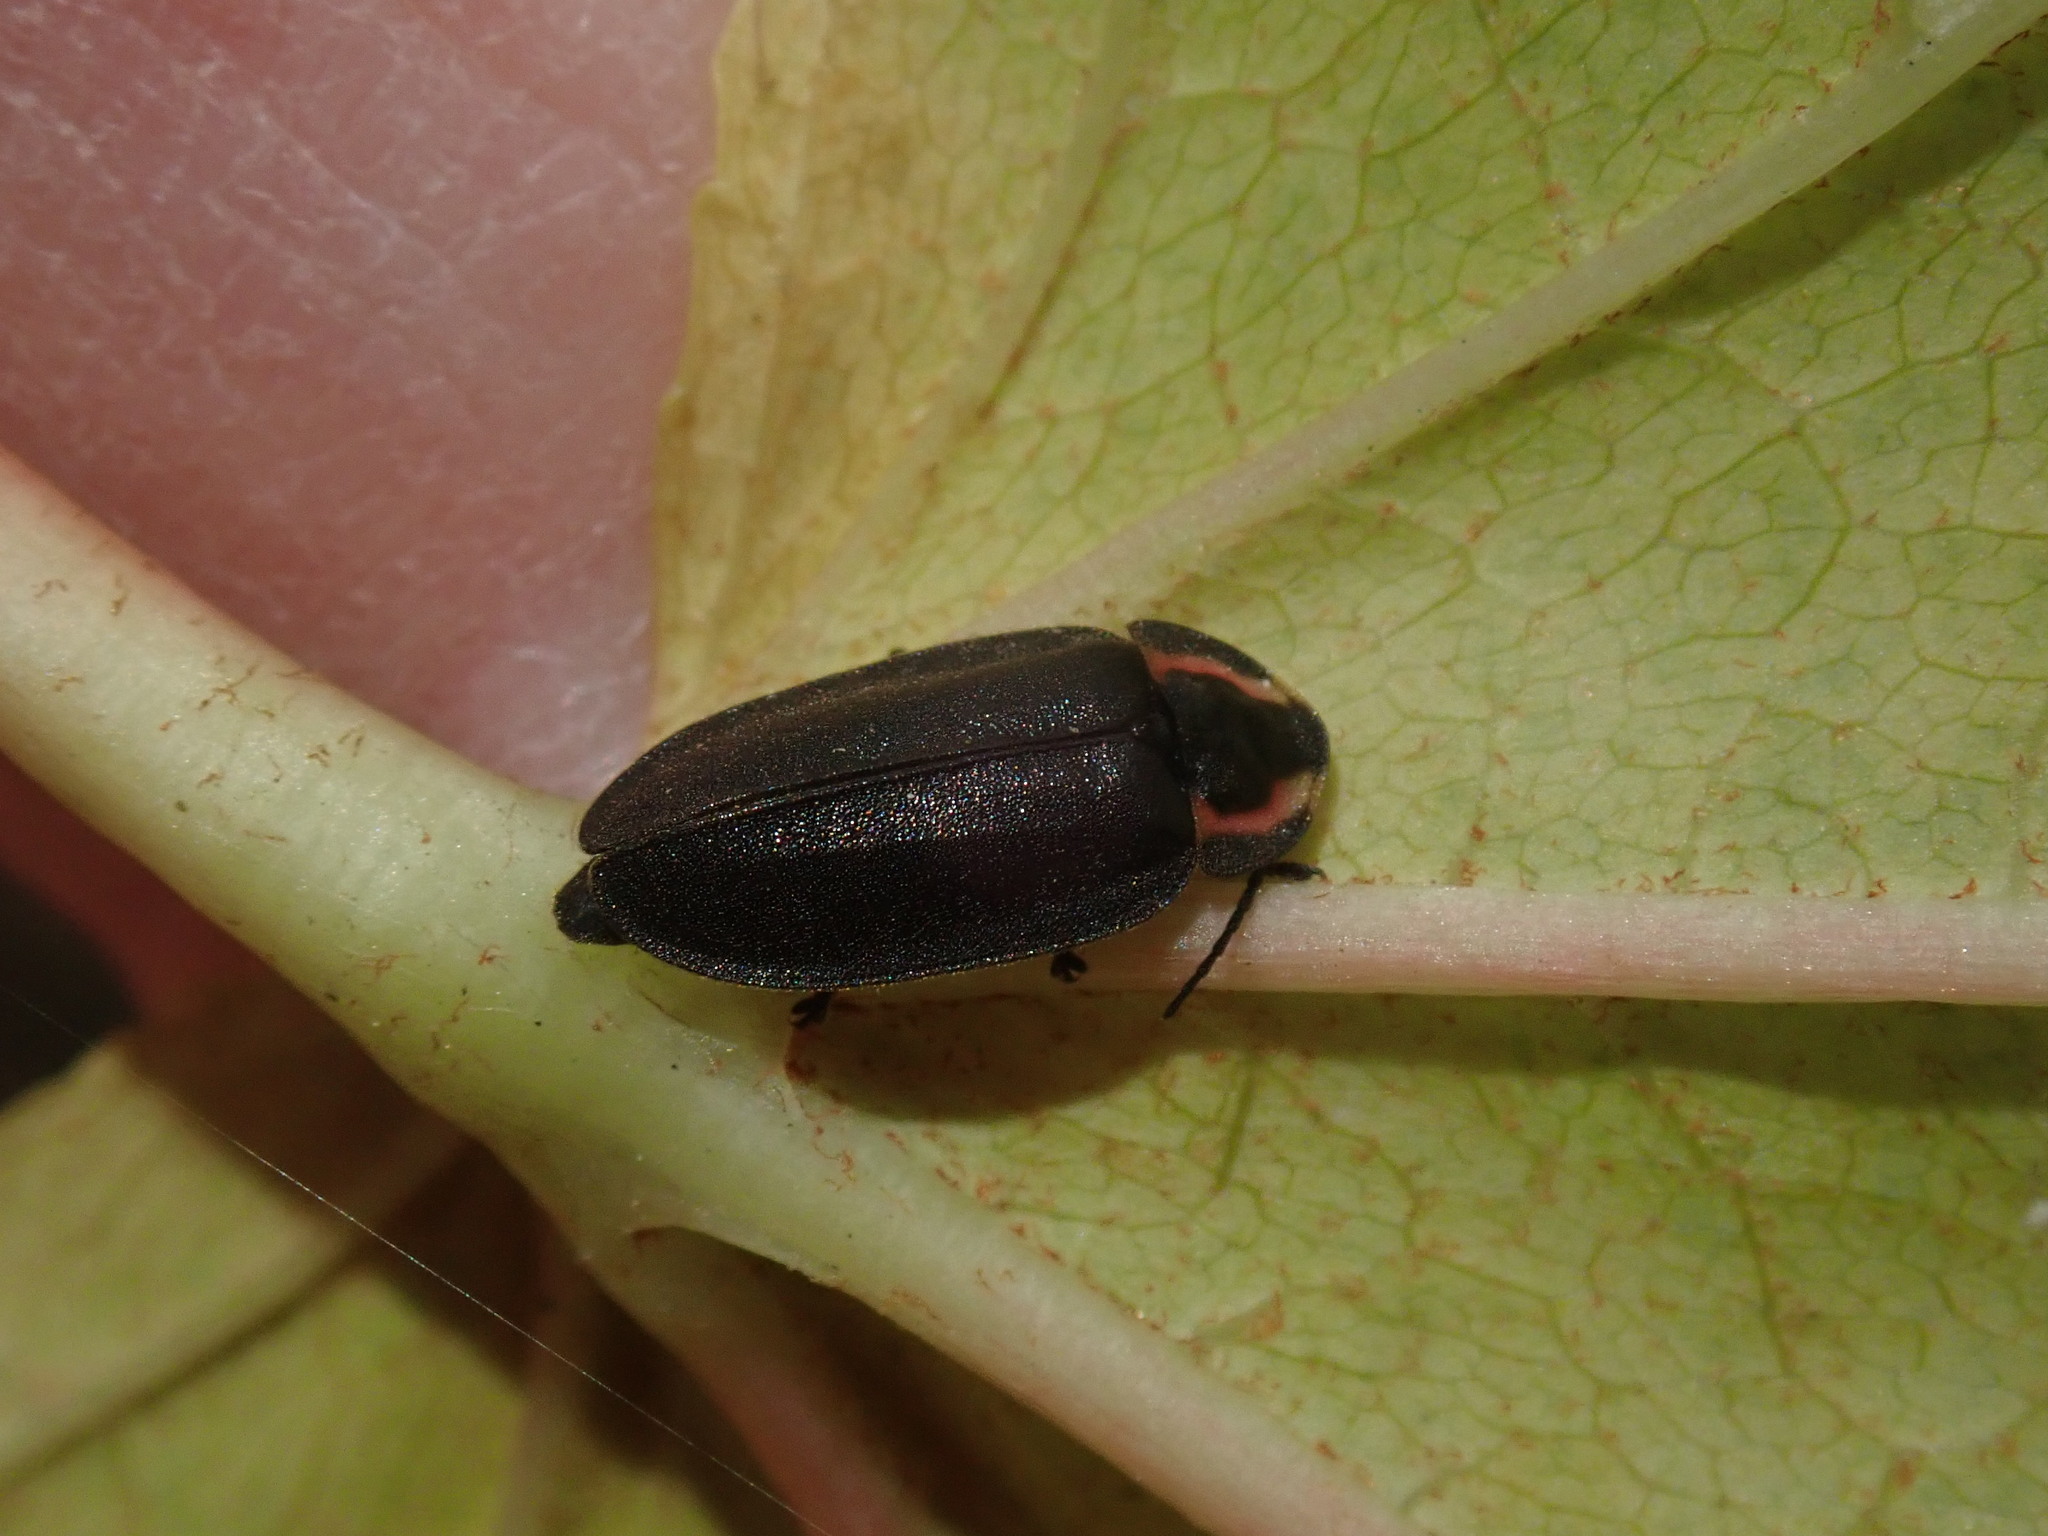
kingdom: Animalia
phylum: Arthropoda
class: Insecta
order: Coleoptera
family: Lampyridae
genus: Photinus
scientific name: Photinus corrusca
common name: Winter firefly
